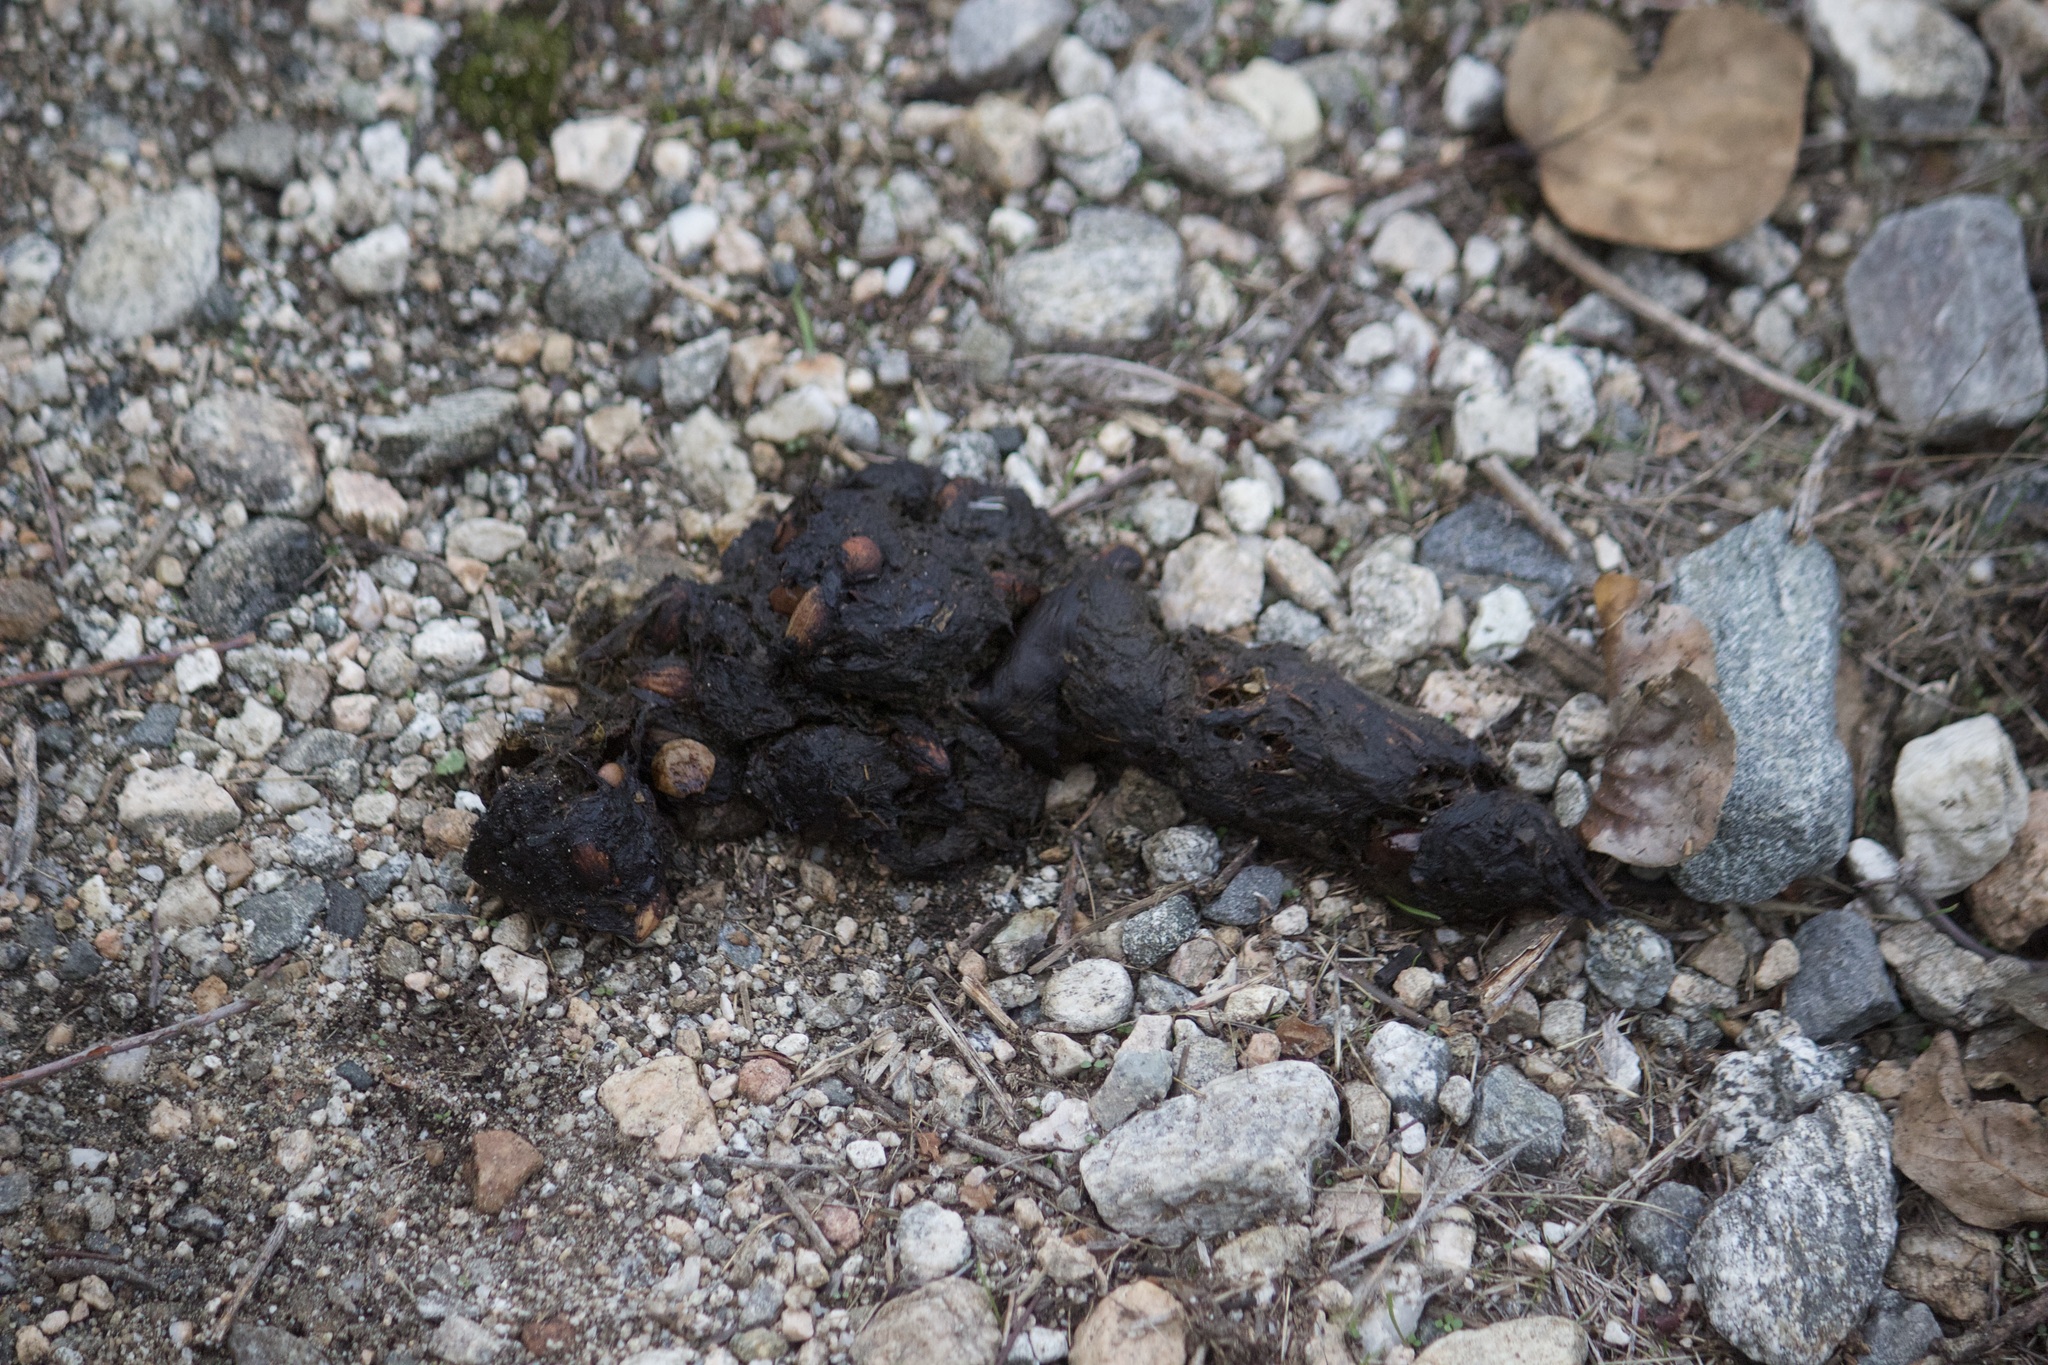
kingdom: Animalia
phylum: Chordata
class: Mammalia
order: Carnivora
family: Ursidae
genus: Ursus
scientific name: Ursus americanus
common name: American black bear
